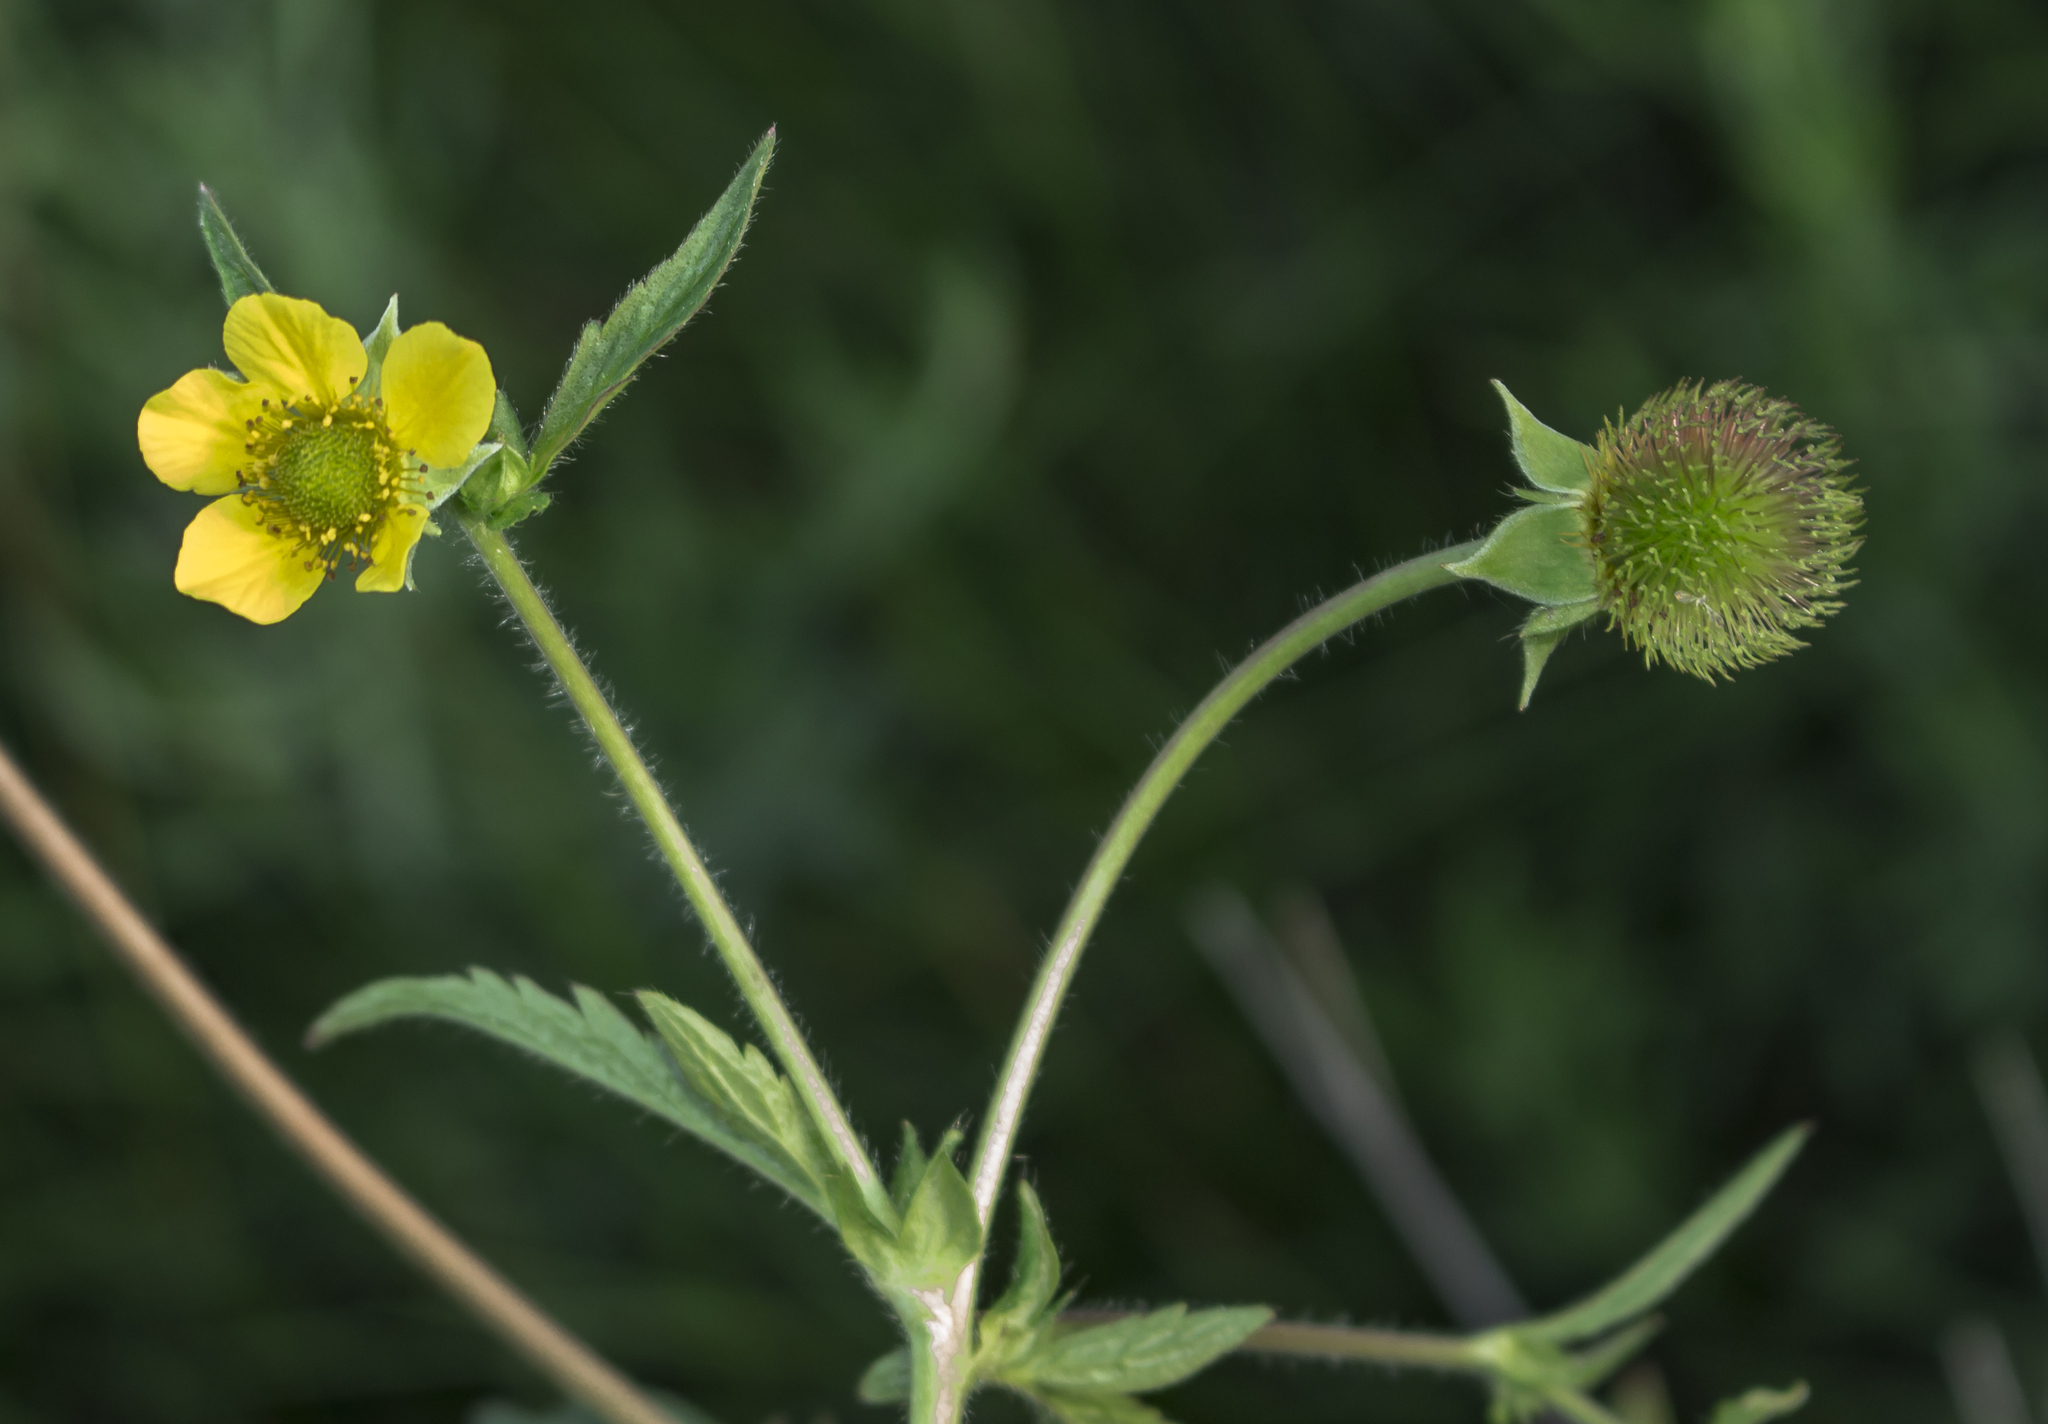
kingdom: Plantae
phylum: Tracheophyta
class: Magnoliopsida
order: Rosales
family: Rosaceae
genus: Geum
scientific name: Geum aleppicum
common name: Yellow avens
